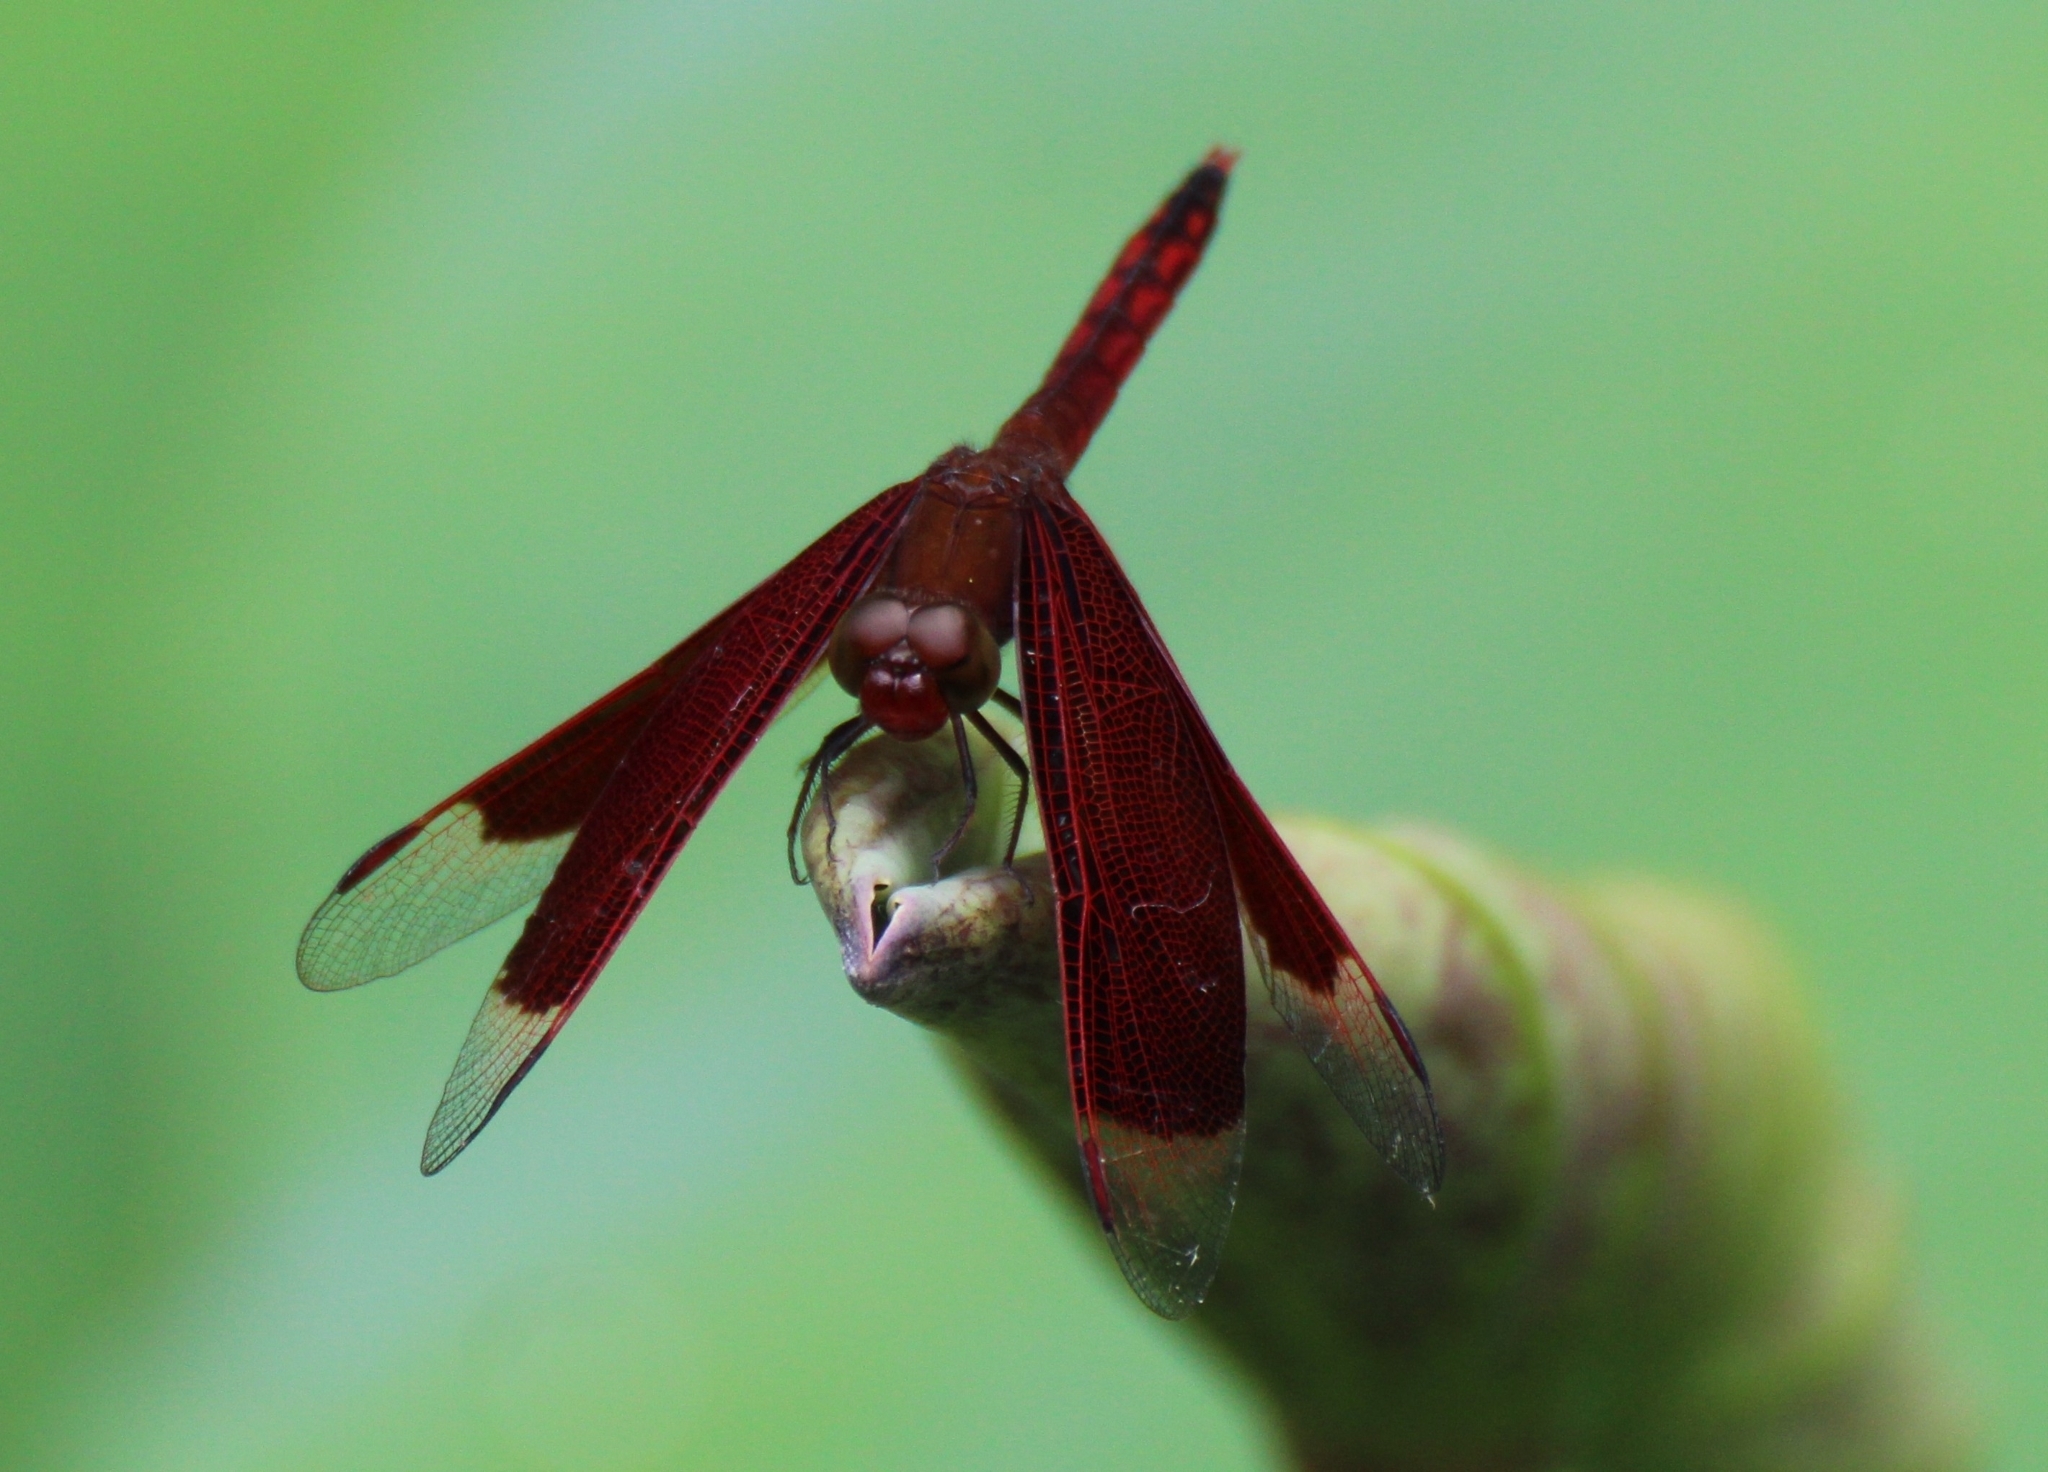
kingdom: Animalia
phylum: Arthropoda
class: Insecta
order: Odonata
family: Libellulidae
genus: Neurothemis
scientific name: Neurothemis ramburii
